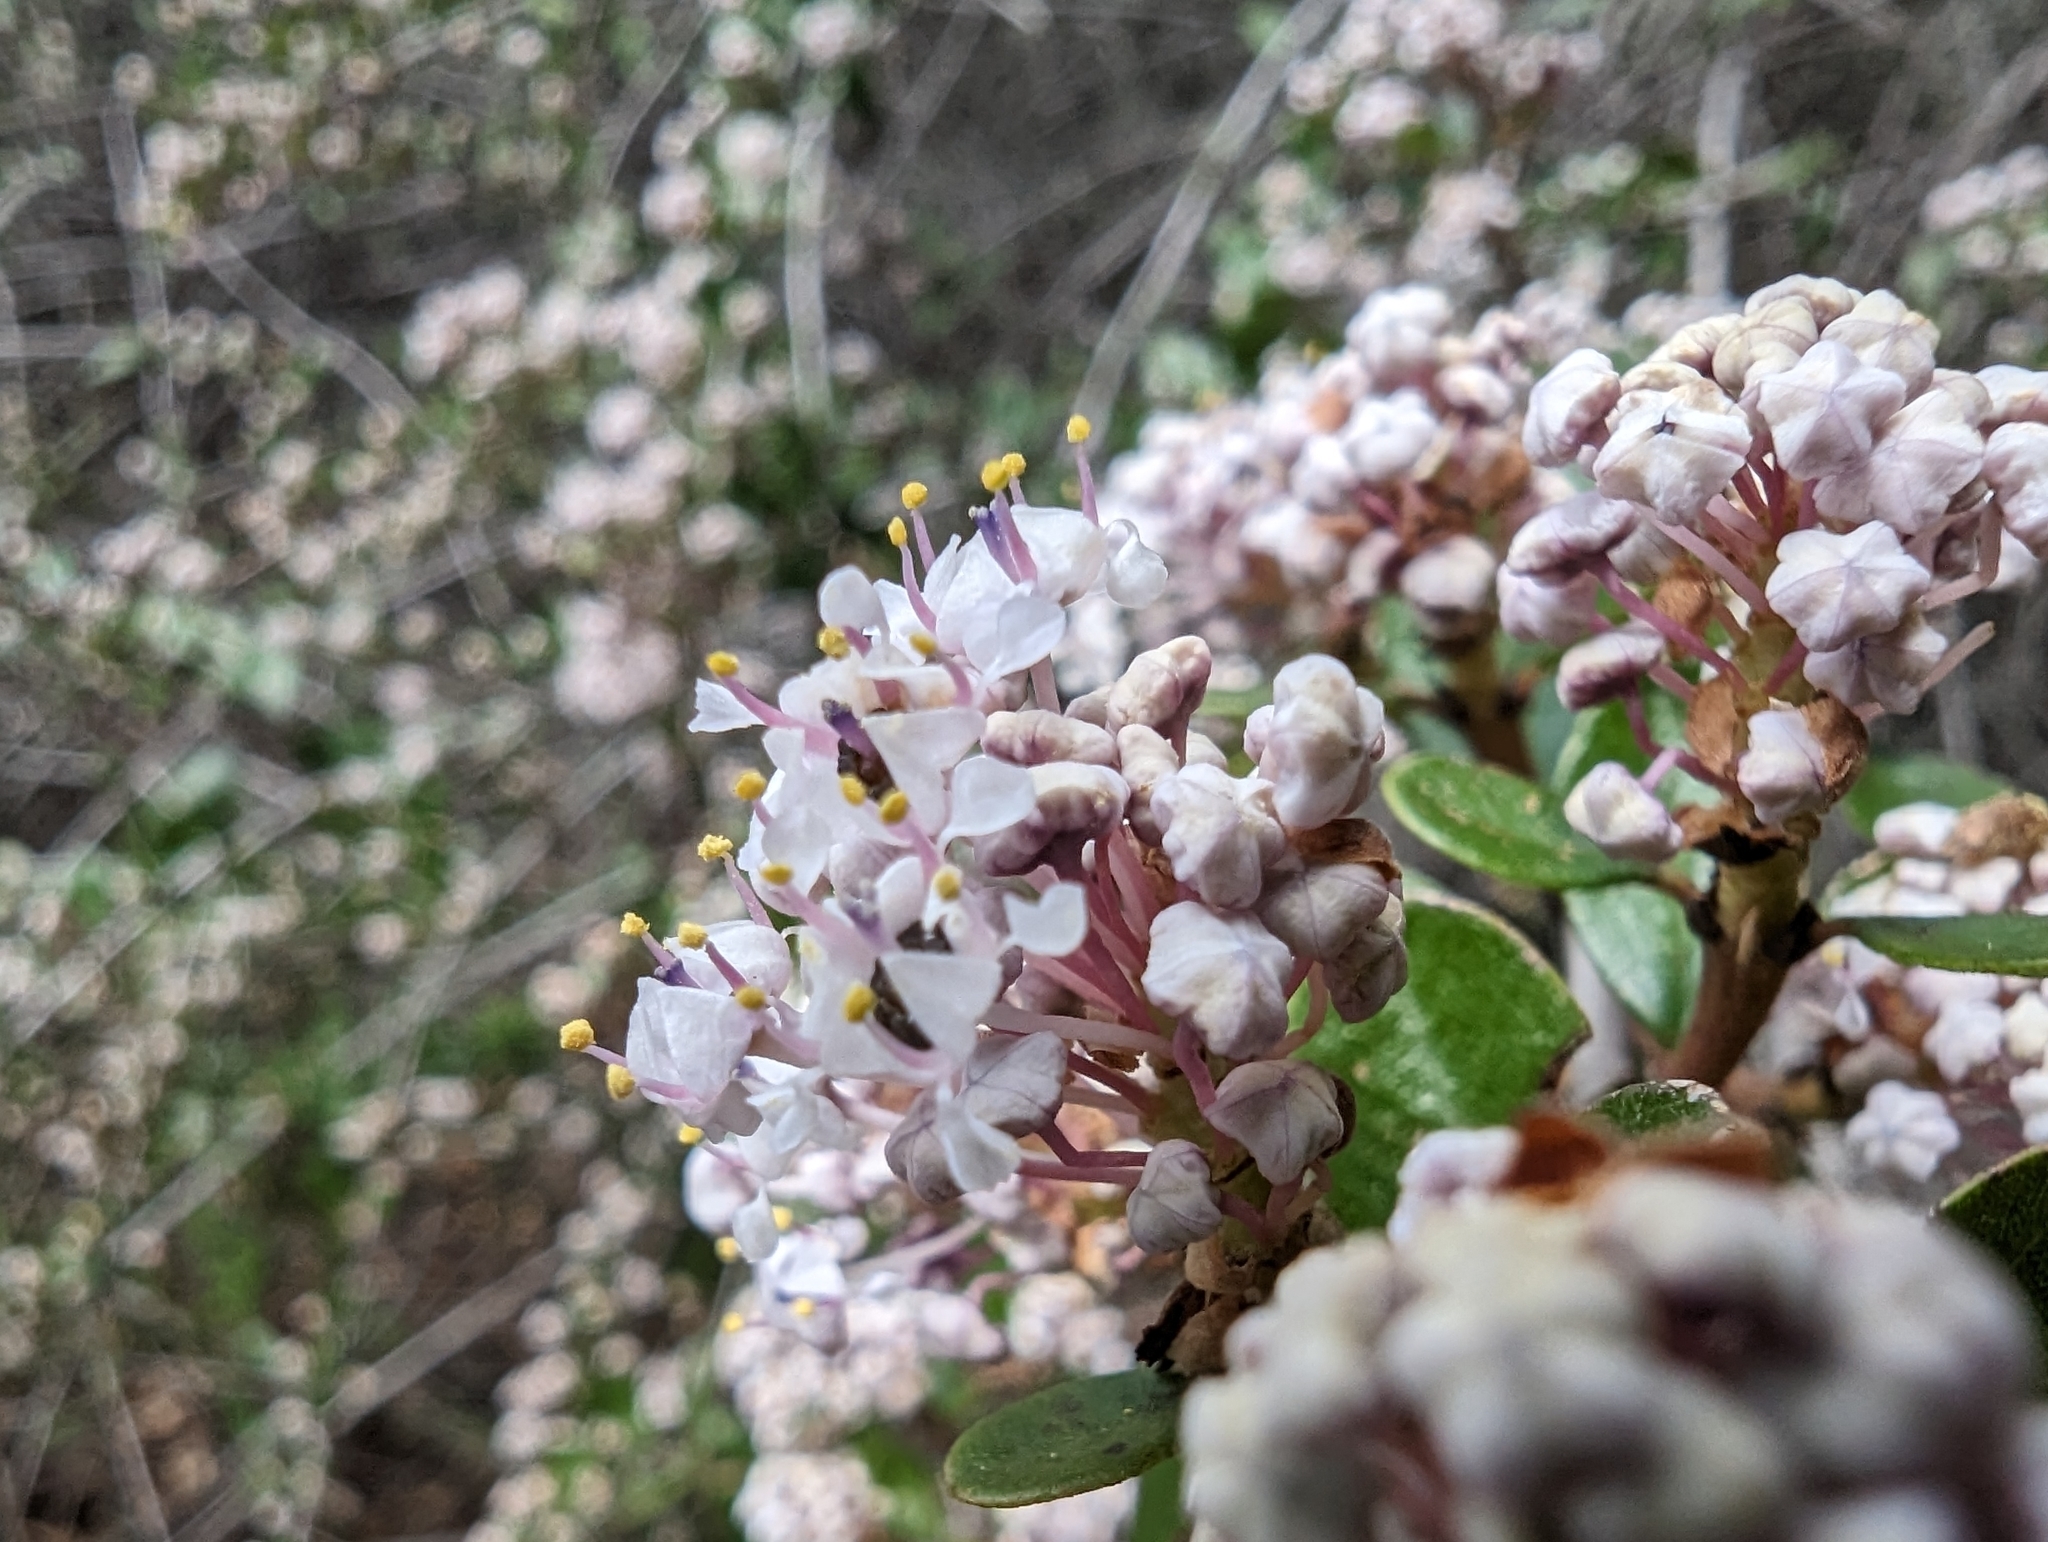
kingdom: Plantae
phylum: Tracheophyta
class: Magnoliopsida
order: Rosales
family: Rhamnaceae
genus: Ceanothus
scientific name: Ceanothus cuneatus
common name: Cuneate ceanothus
